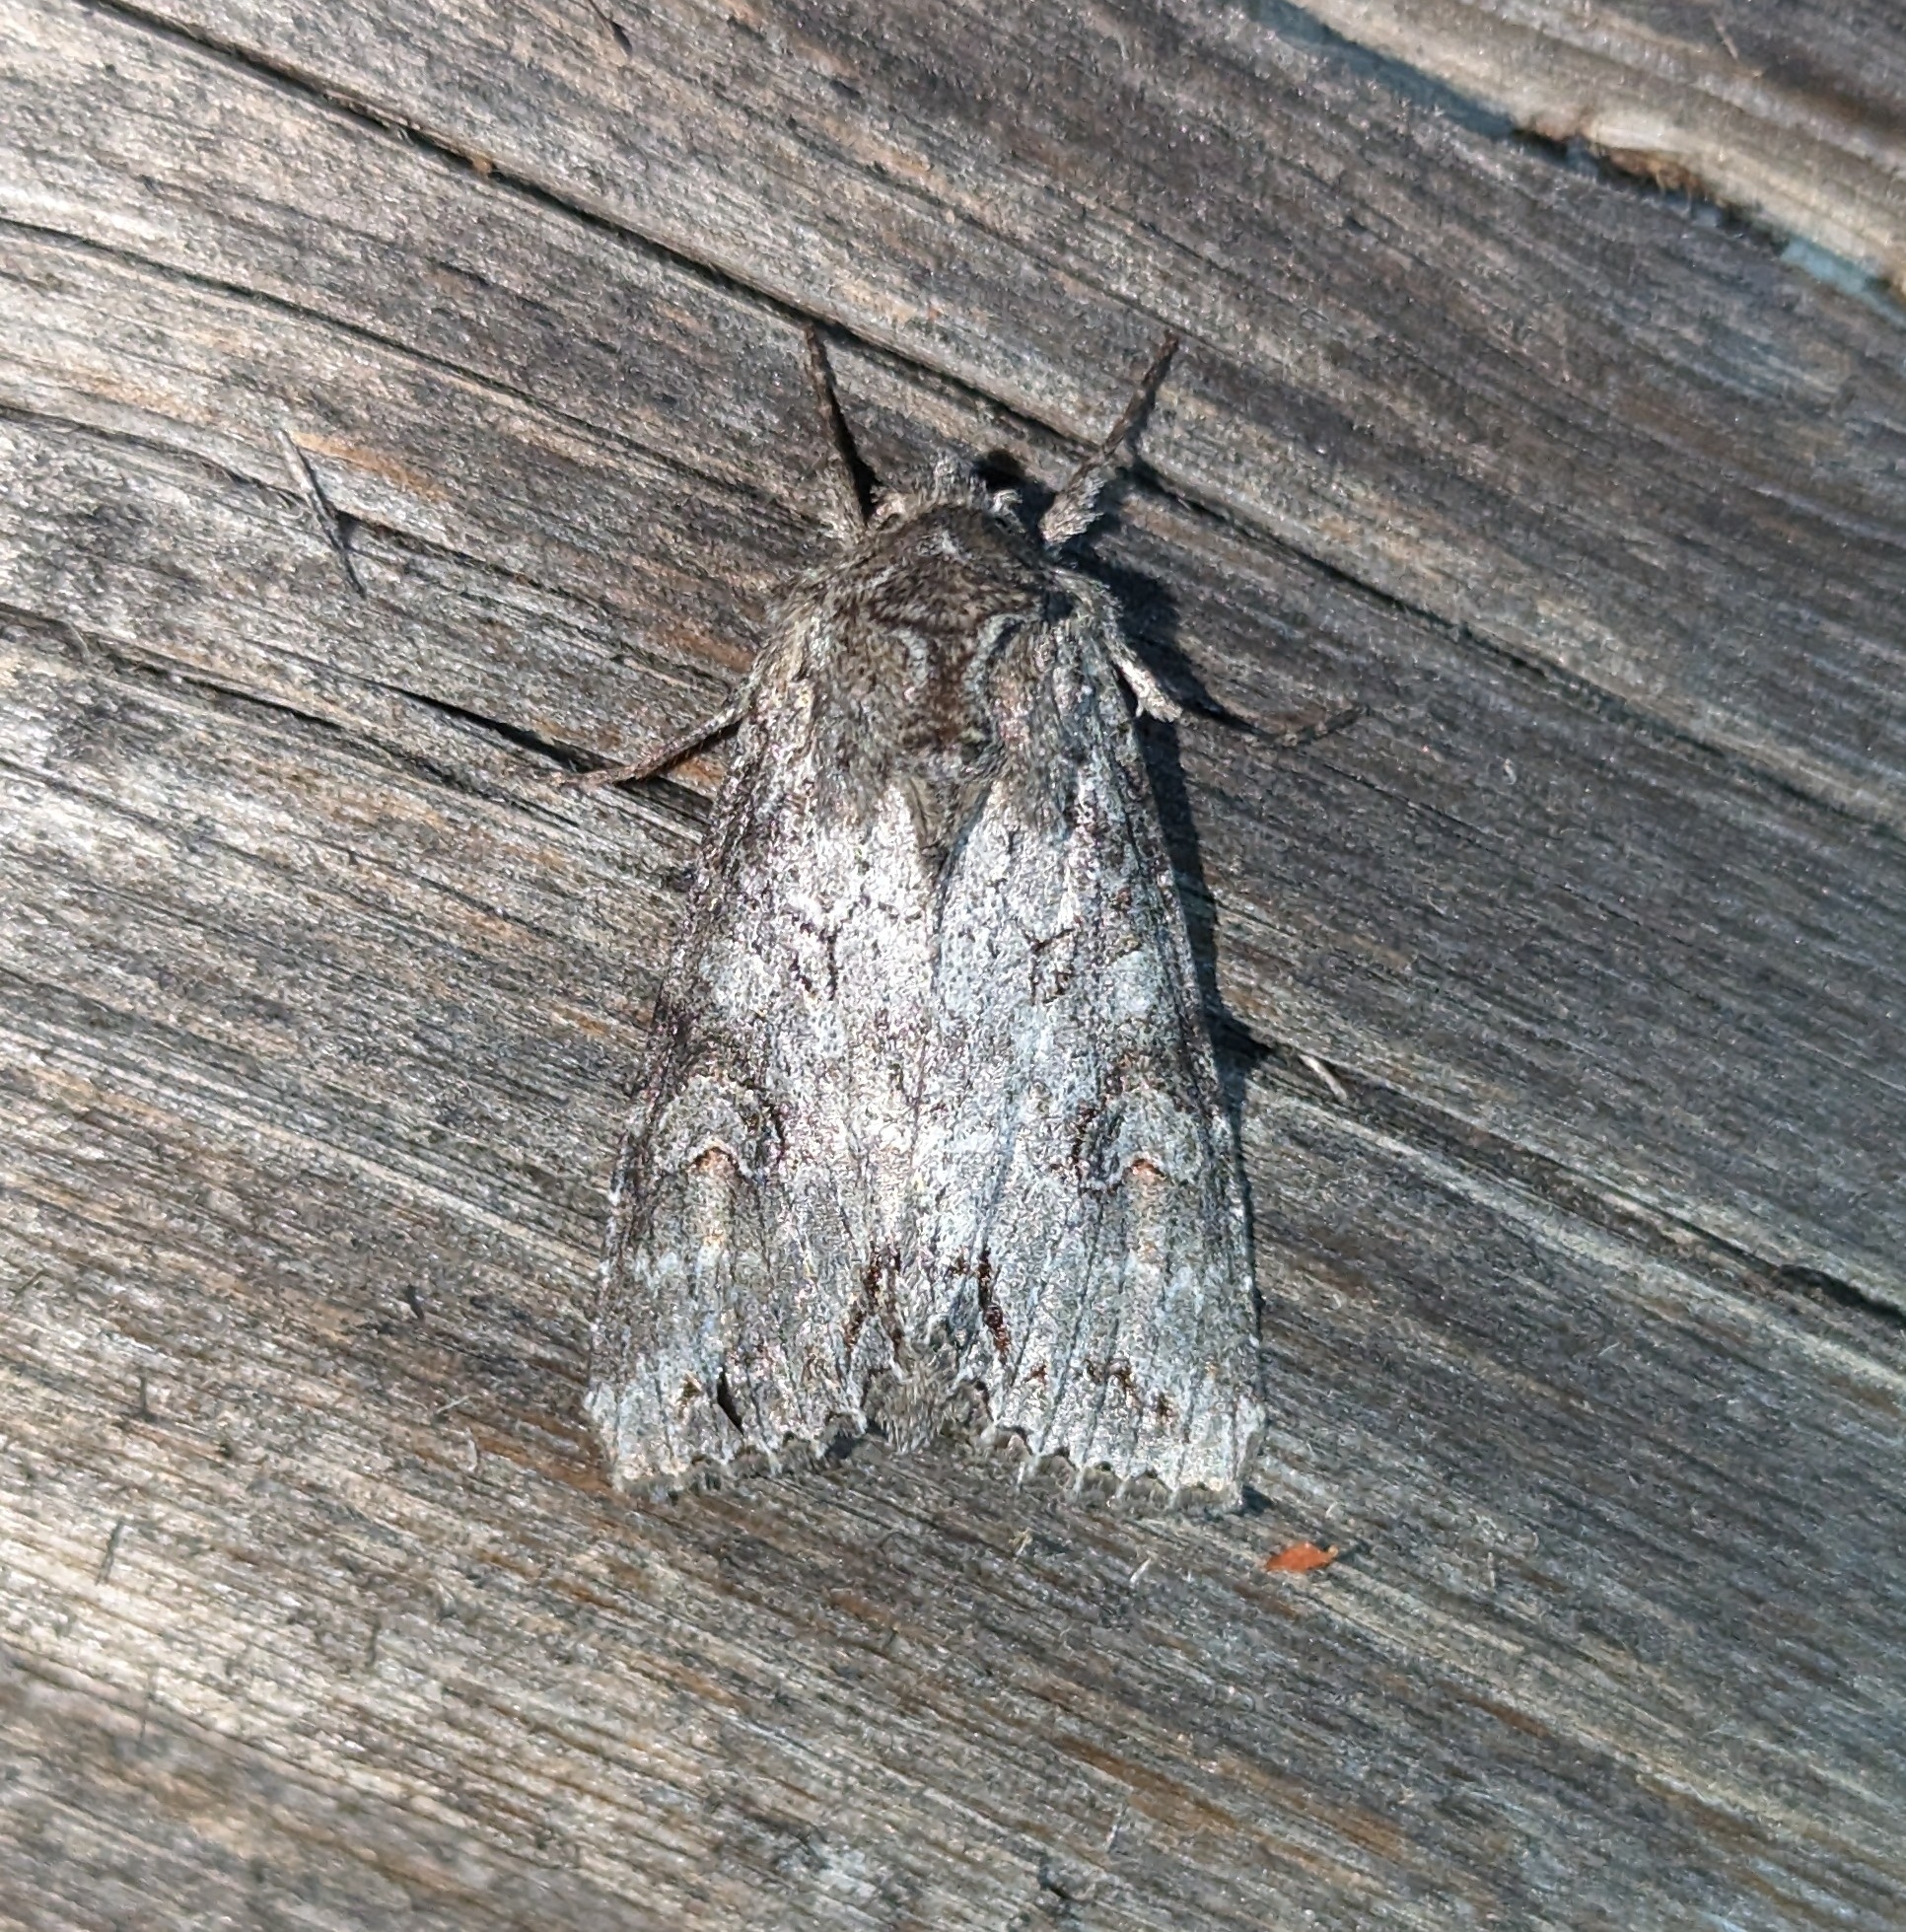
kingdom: Animalia
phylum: Arthropoda
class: Insecta
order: Lepidoptera
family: Noctuidae
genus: Polia
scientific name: Polia purpurissata
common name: Purple arches moth
